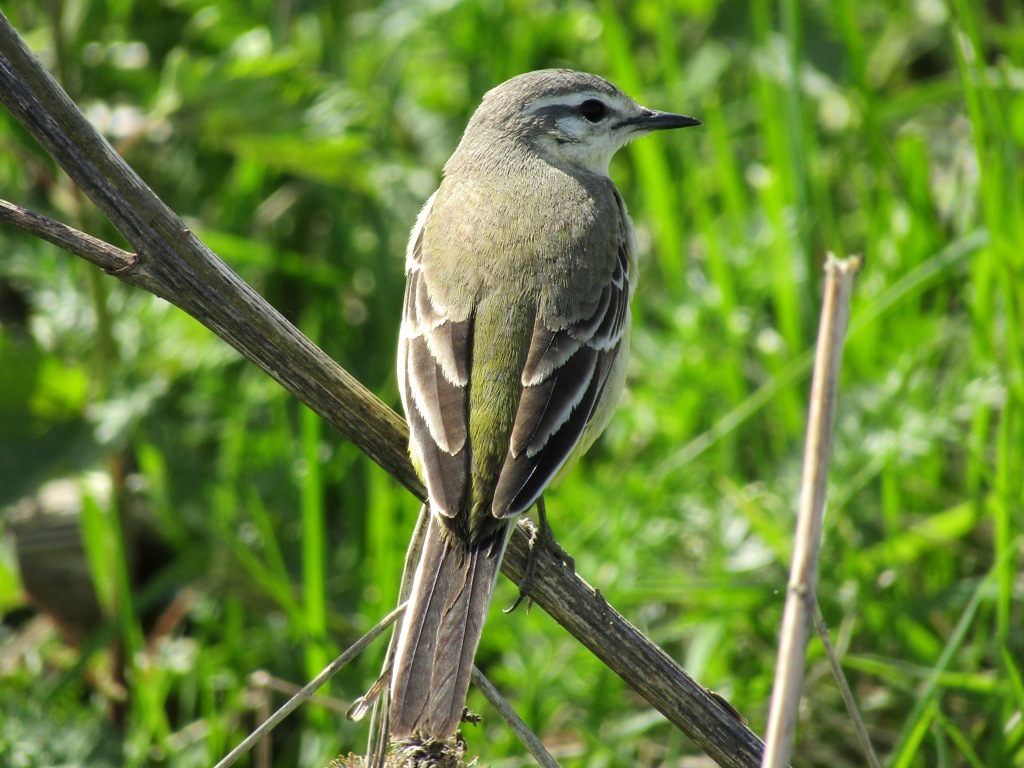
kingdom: Animalia
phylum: Chordata
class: Aves
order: Passeriformes
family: Motacillidae
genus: Motacilla
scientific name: Motacilla flava
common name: Western yellow wagtail
